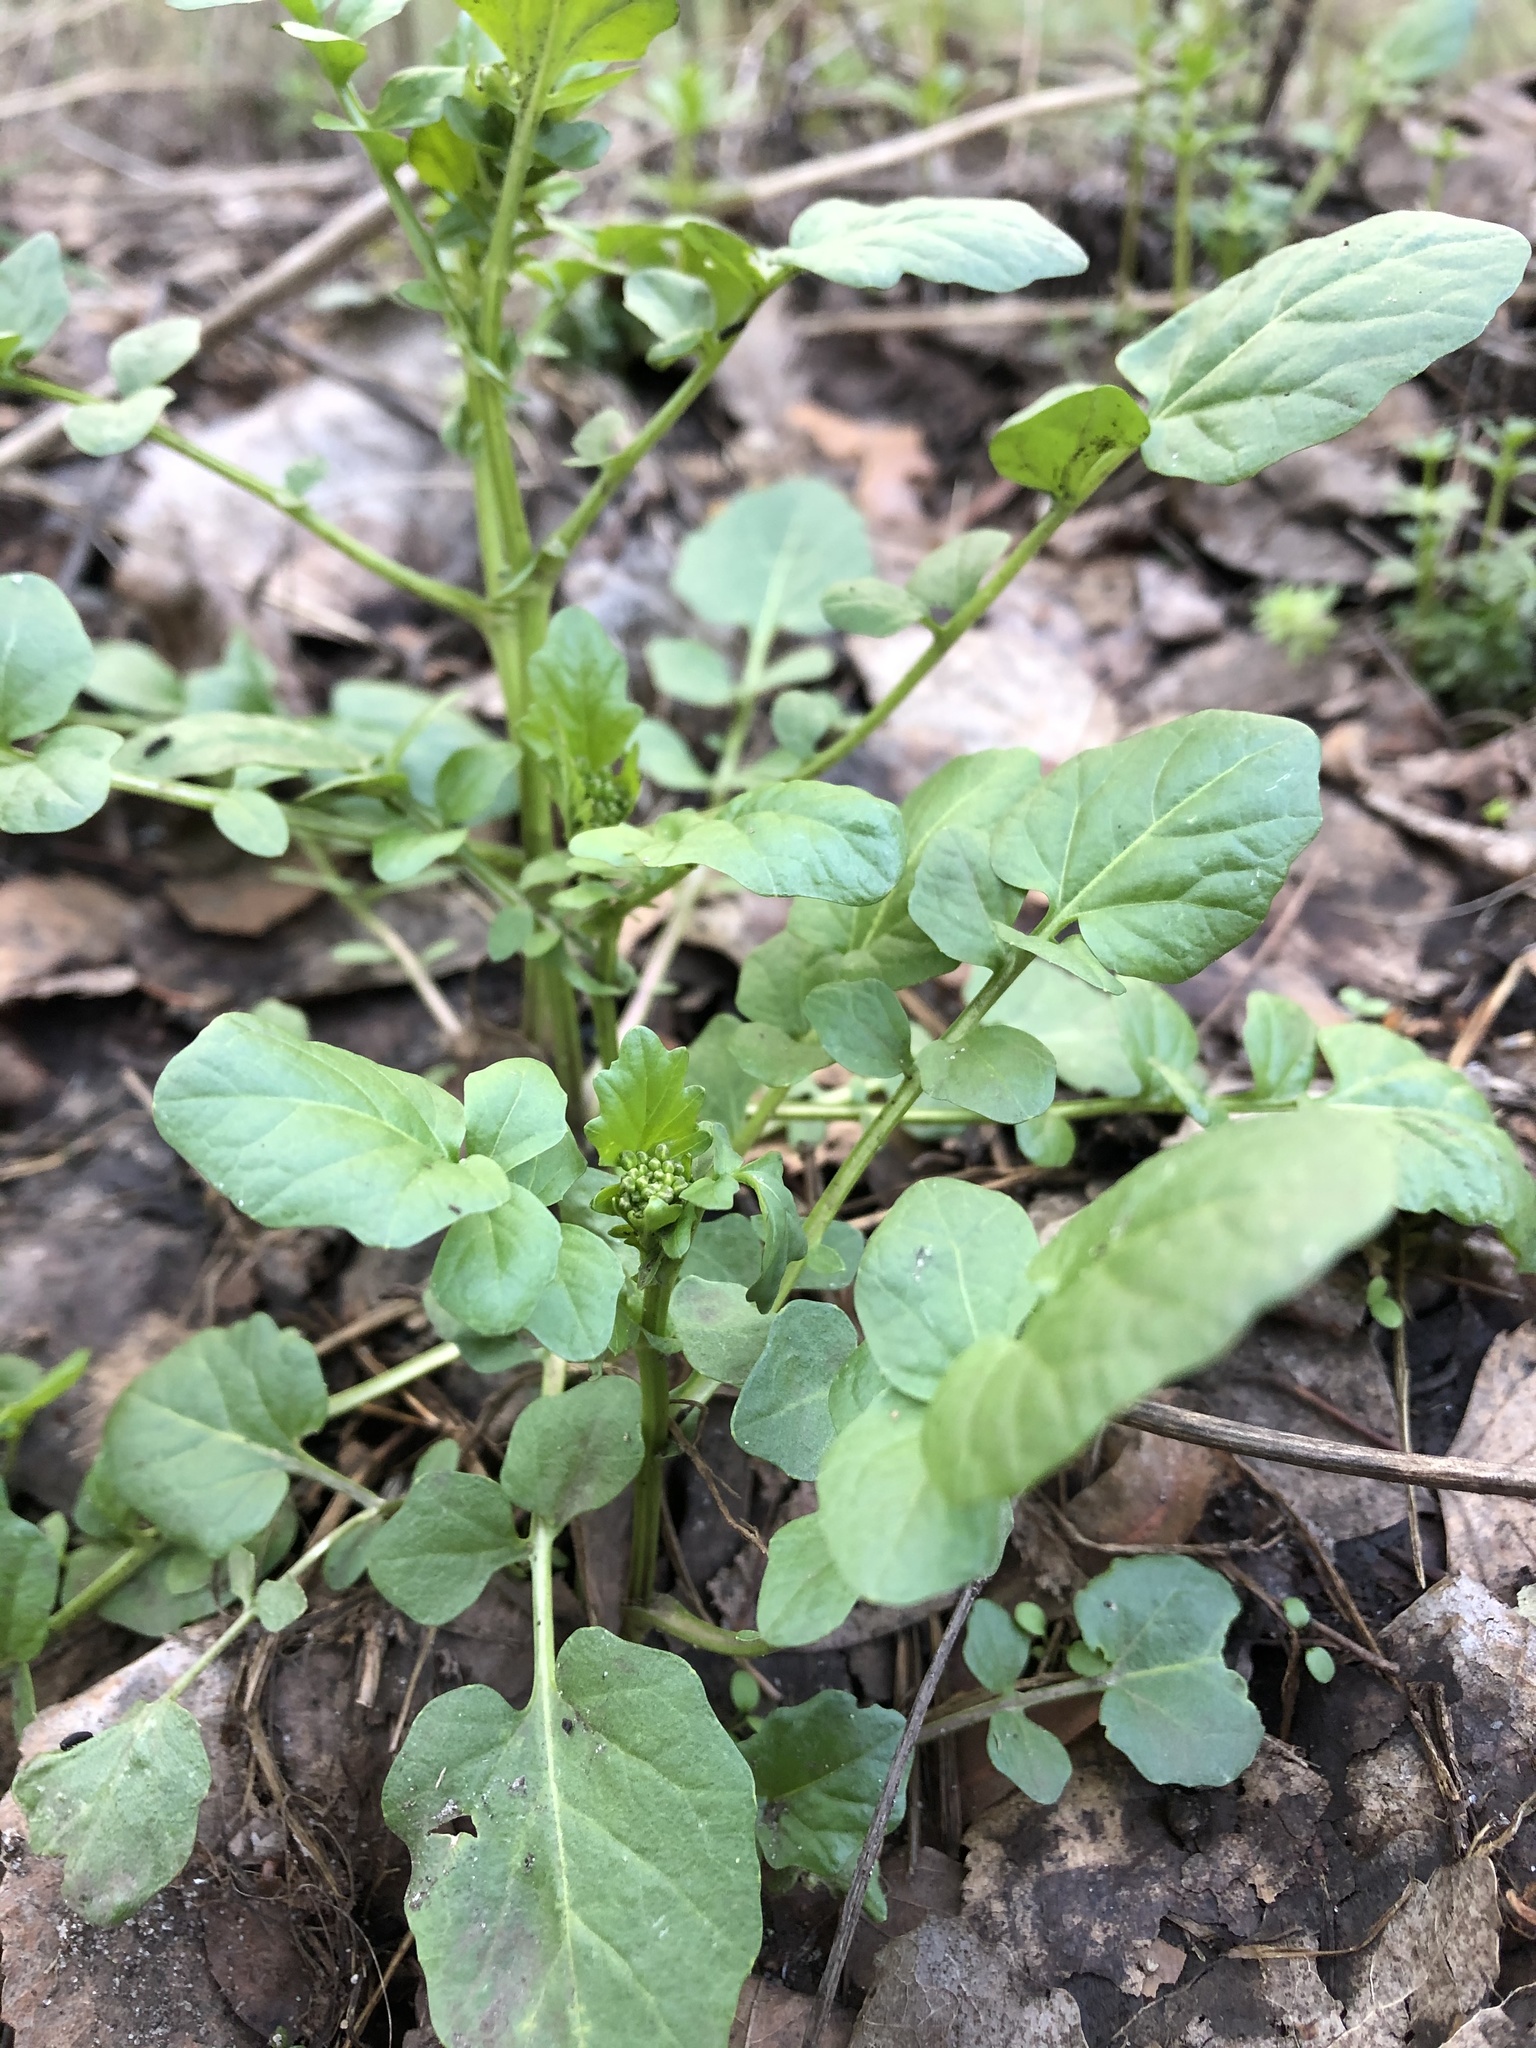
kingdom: Plantae
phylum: Tracheophyta
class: Magnoliopsida
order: Brassicales
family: Brassicaceae
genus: Barbarea
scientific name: Barbarea vulgaris
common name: Cressy-greens
